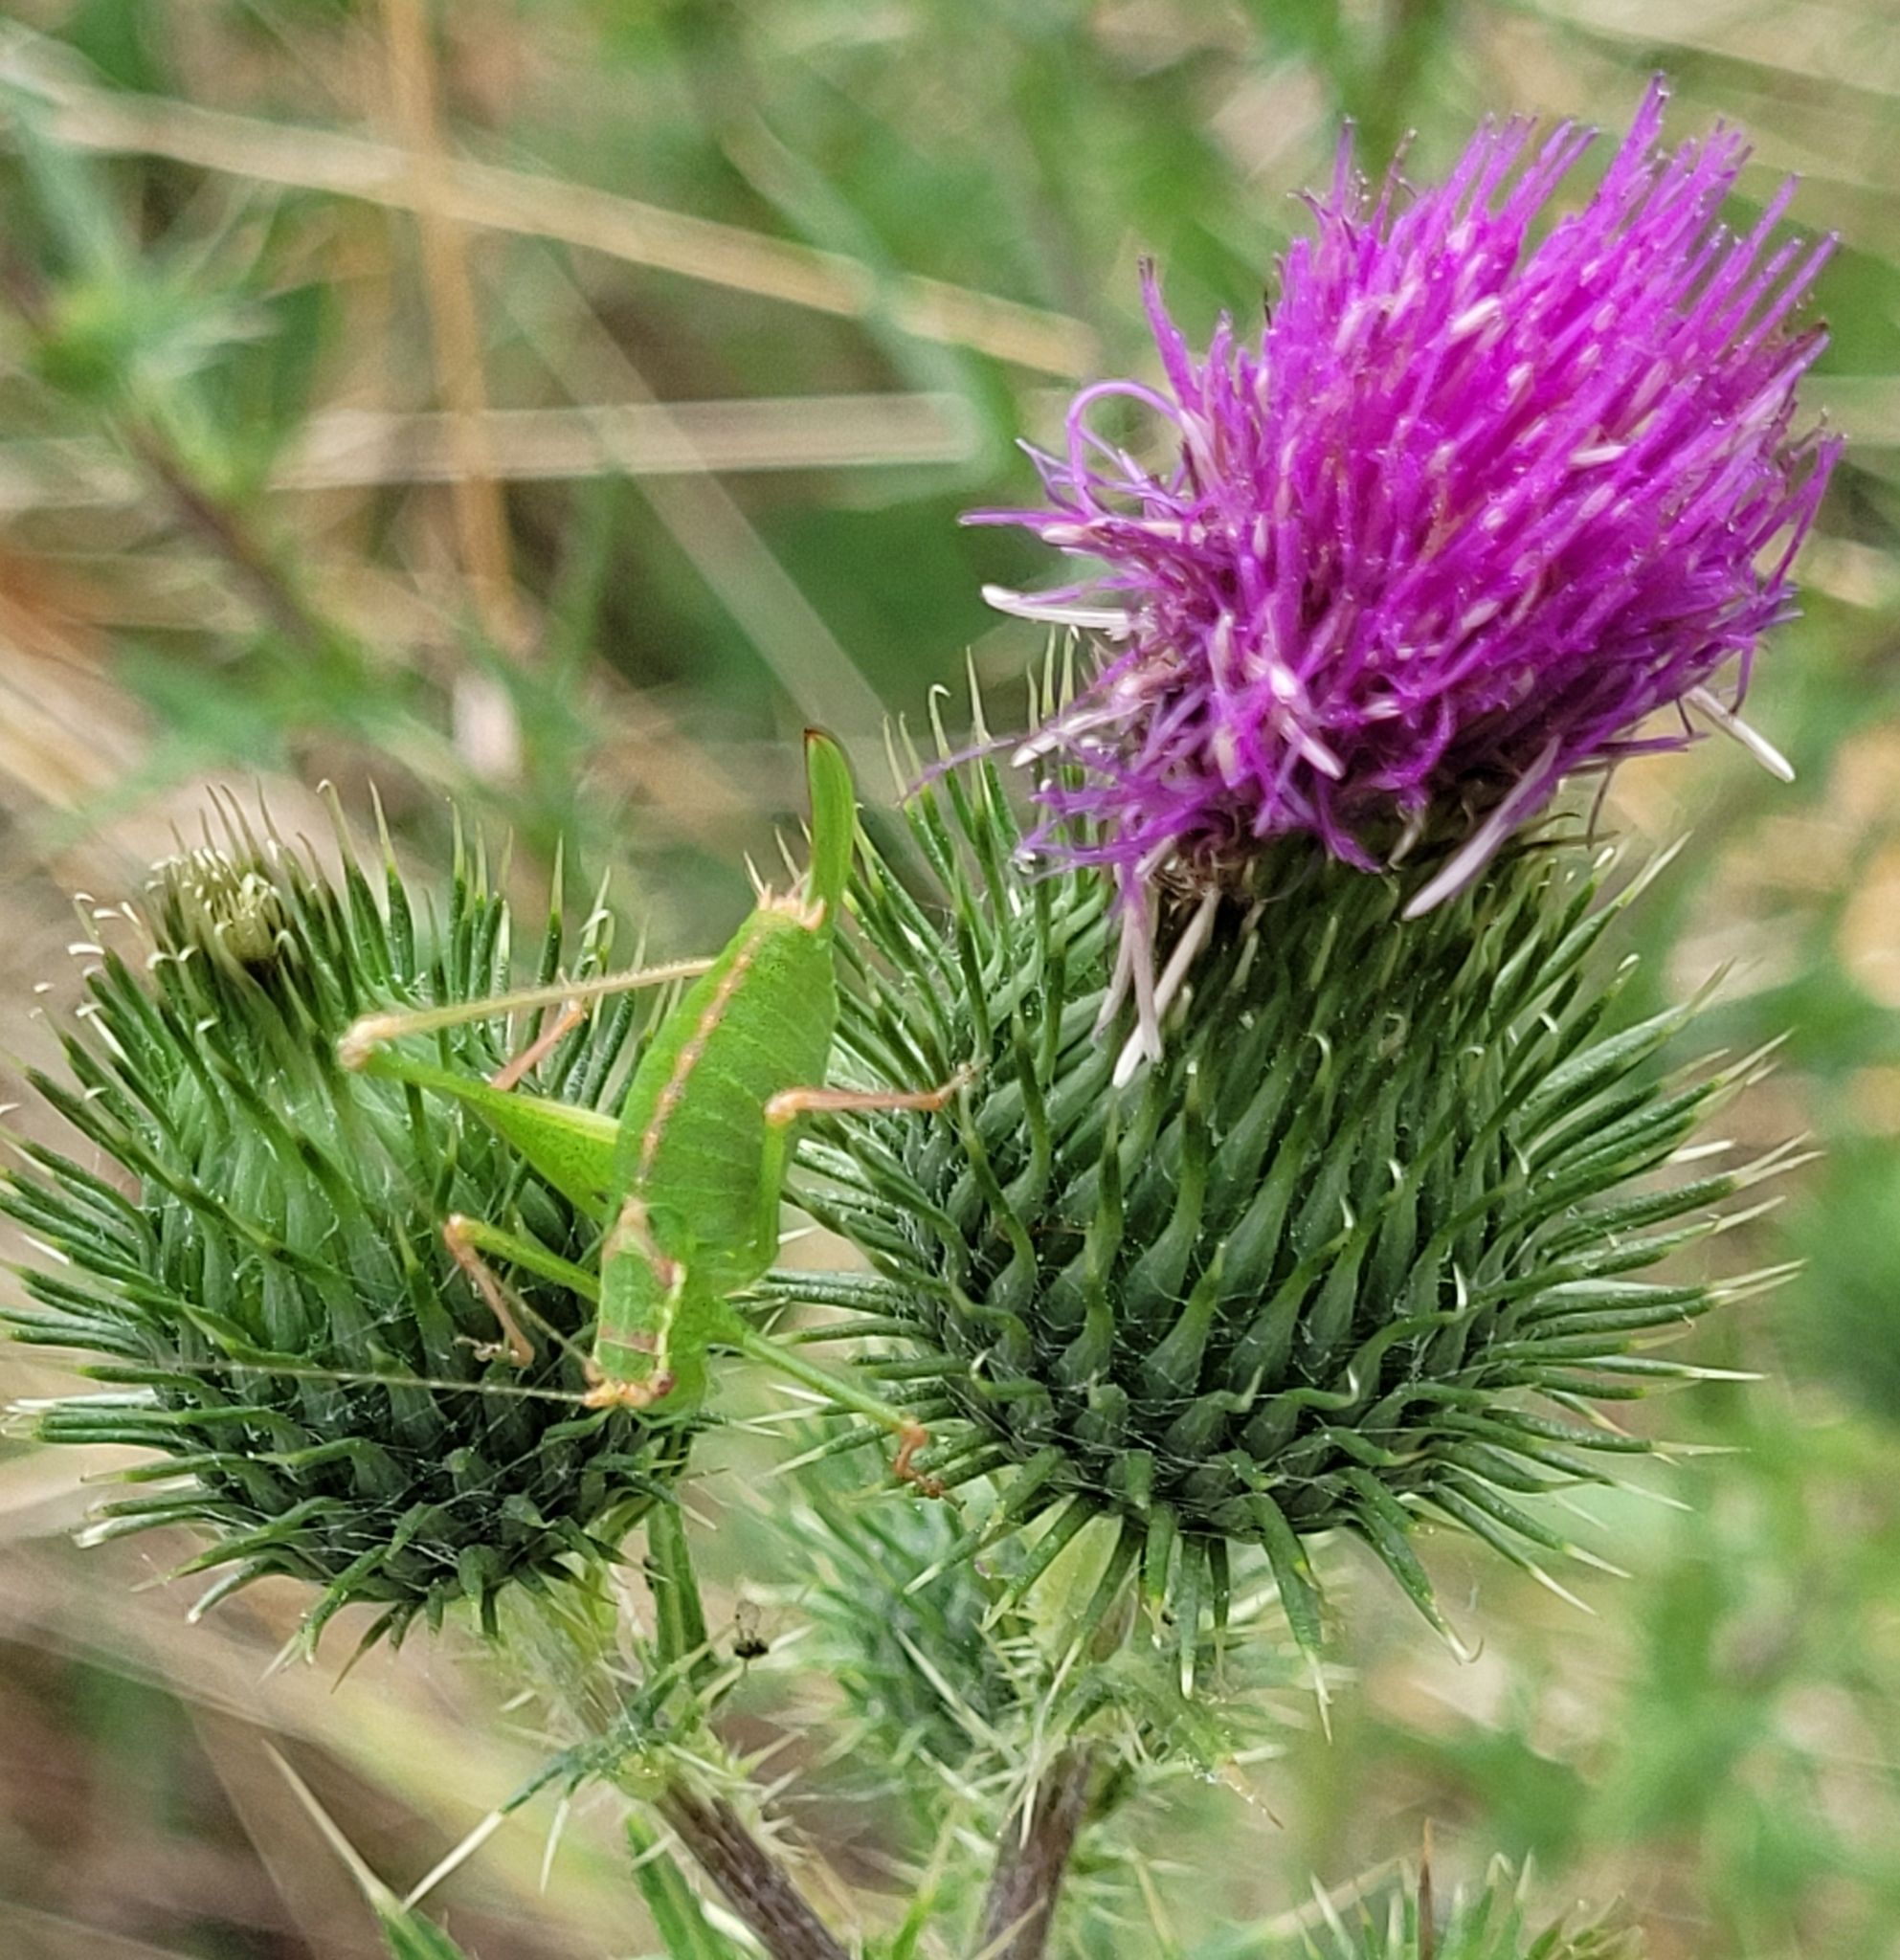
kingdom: Animalia
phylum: Arthropoda
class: Insecta
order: Orthoptera
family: Tettigoniidae
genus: Leptophyes
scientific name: Leptophyes punctatissima
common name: Speckled bush-cricket
